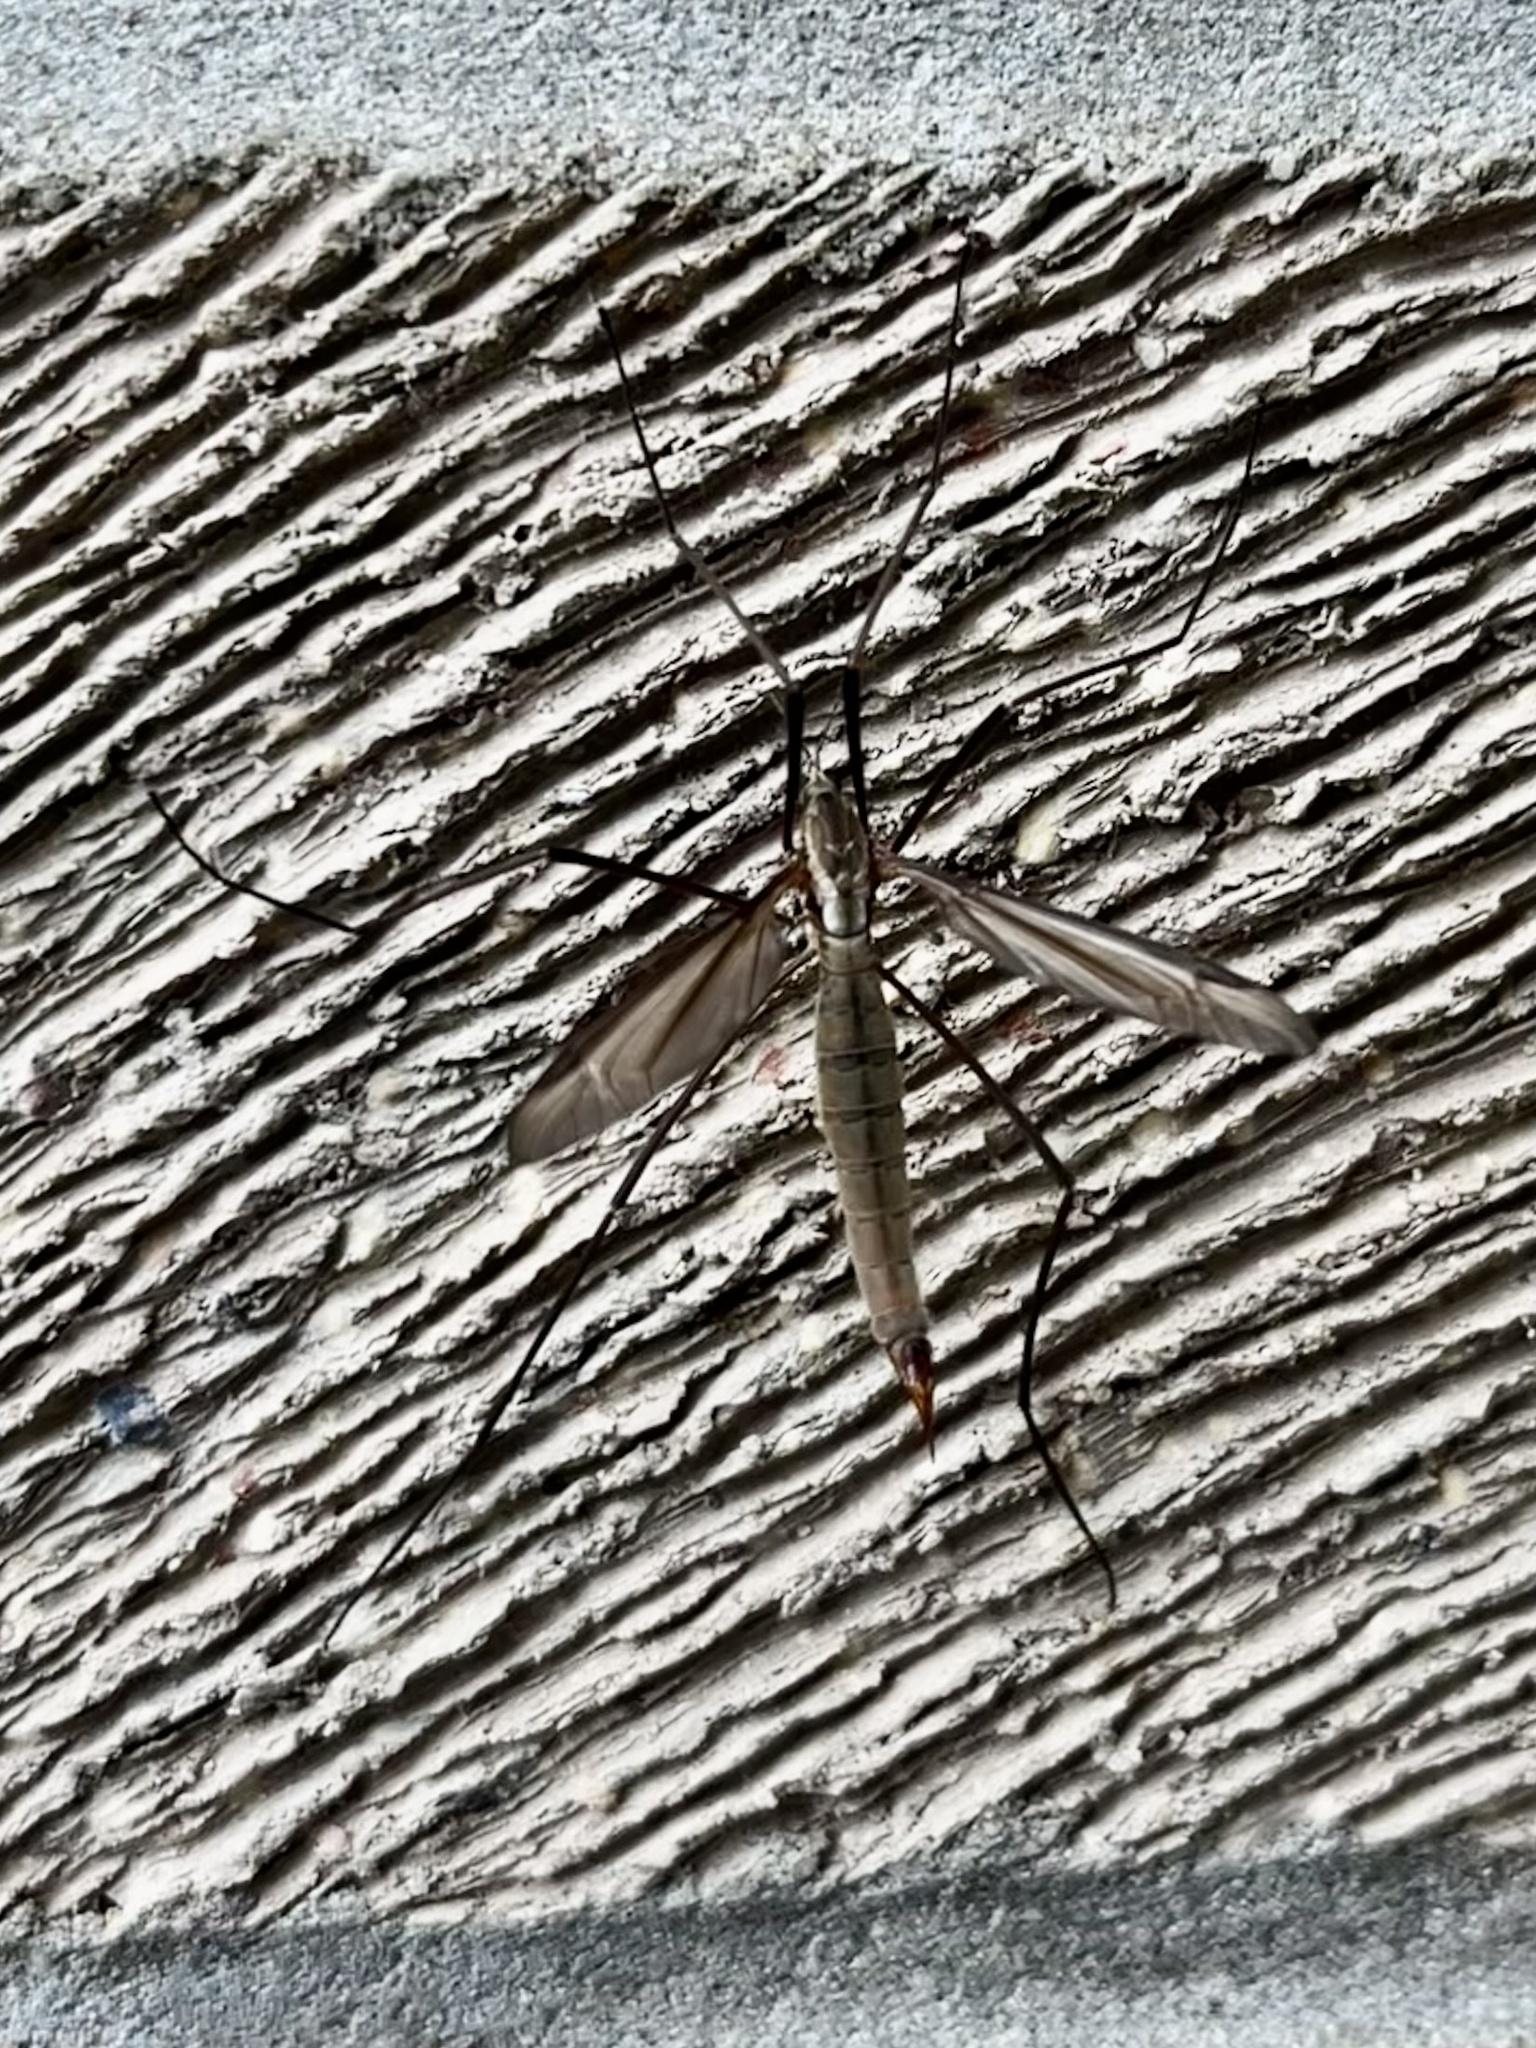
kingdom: Animalia
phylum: Arthropoda
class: Insecta
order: Diptera
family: Tipulidae
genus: Tipula
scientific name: Tipula paludosa
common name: European cranefly
